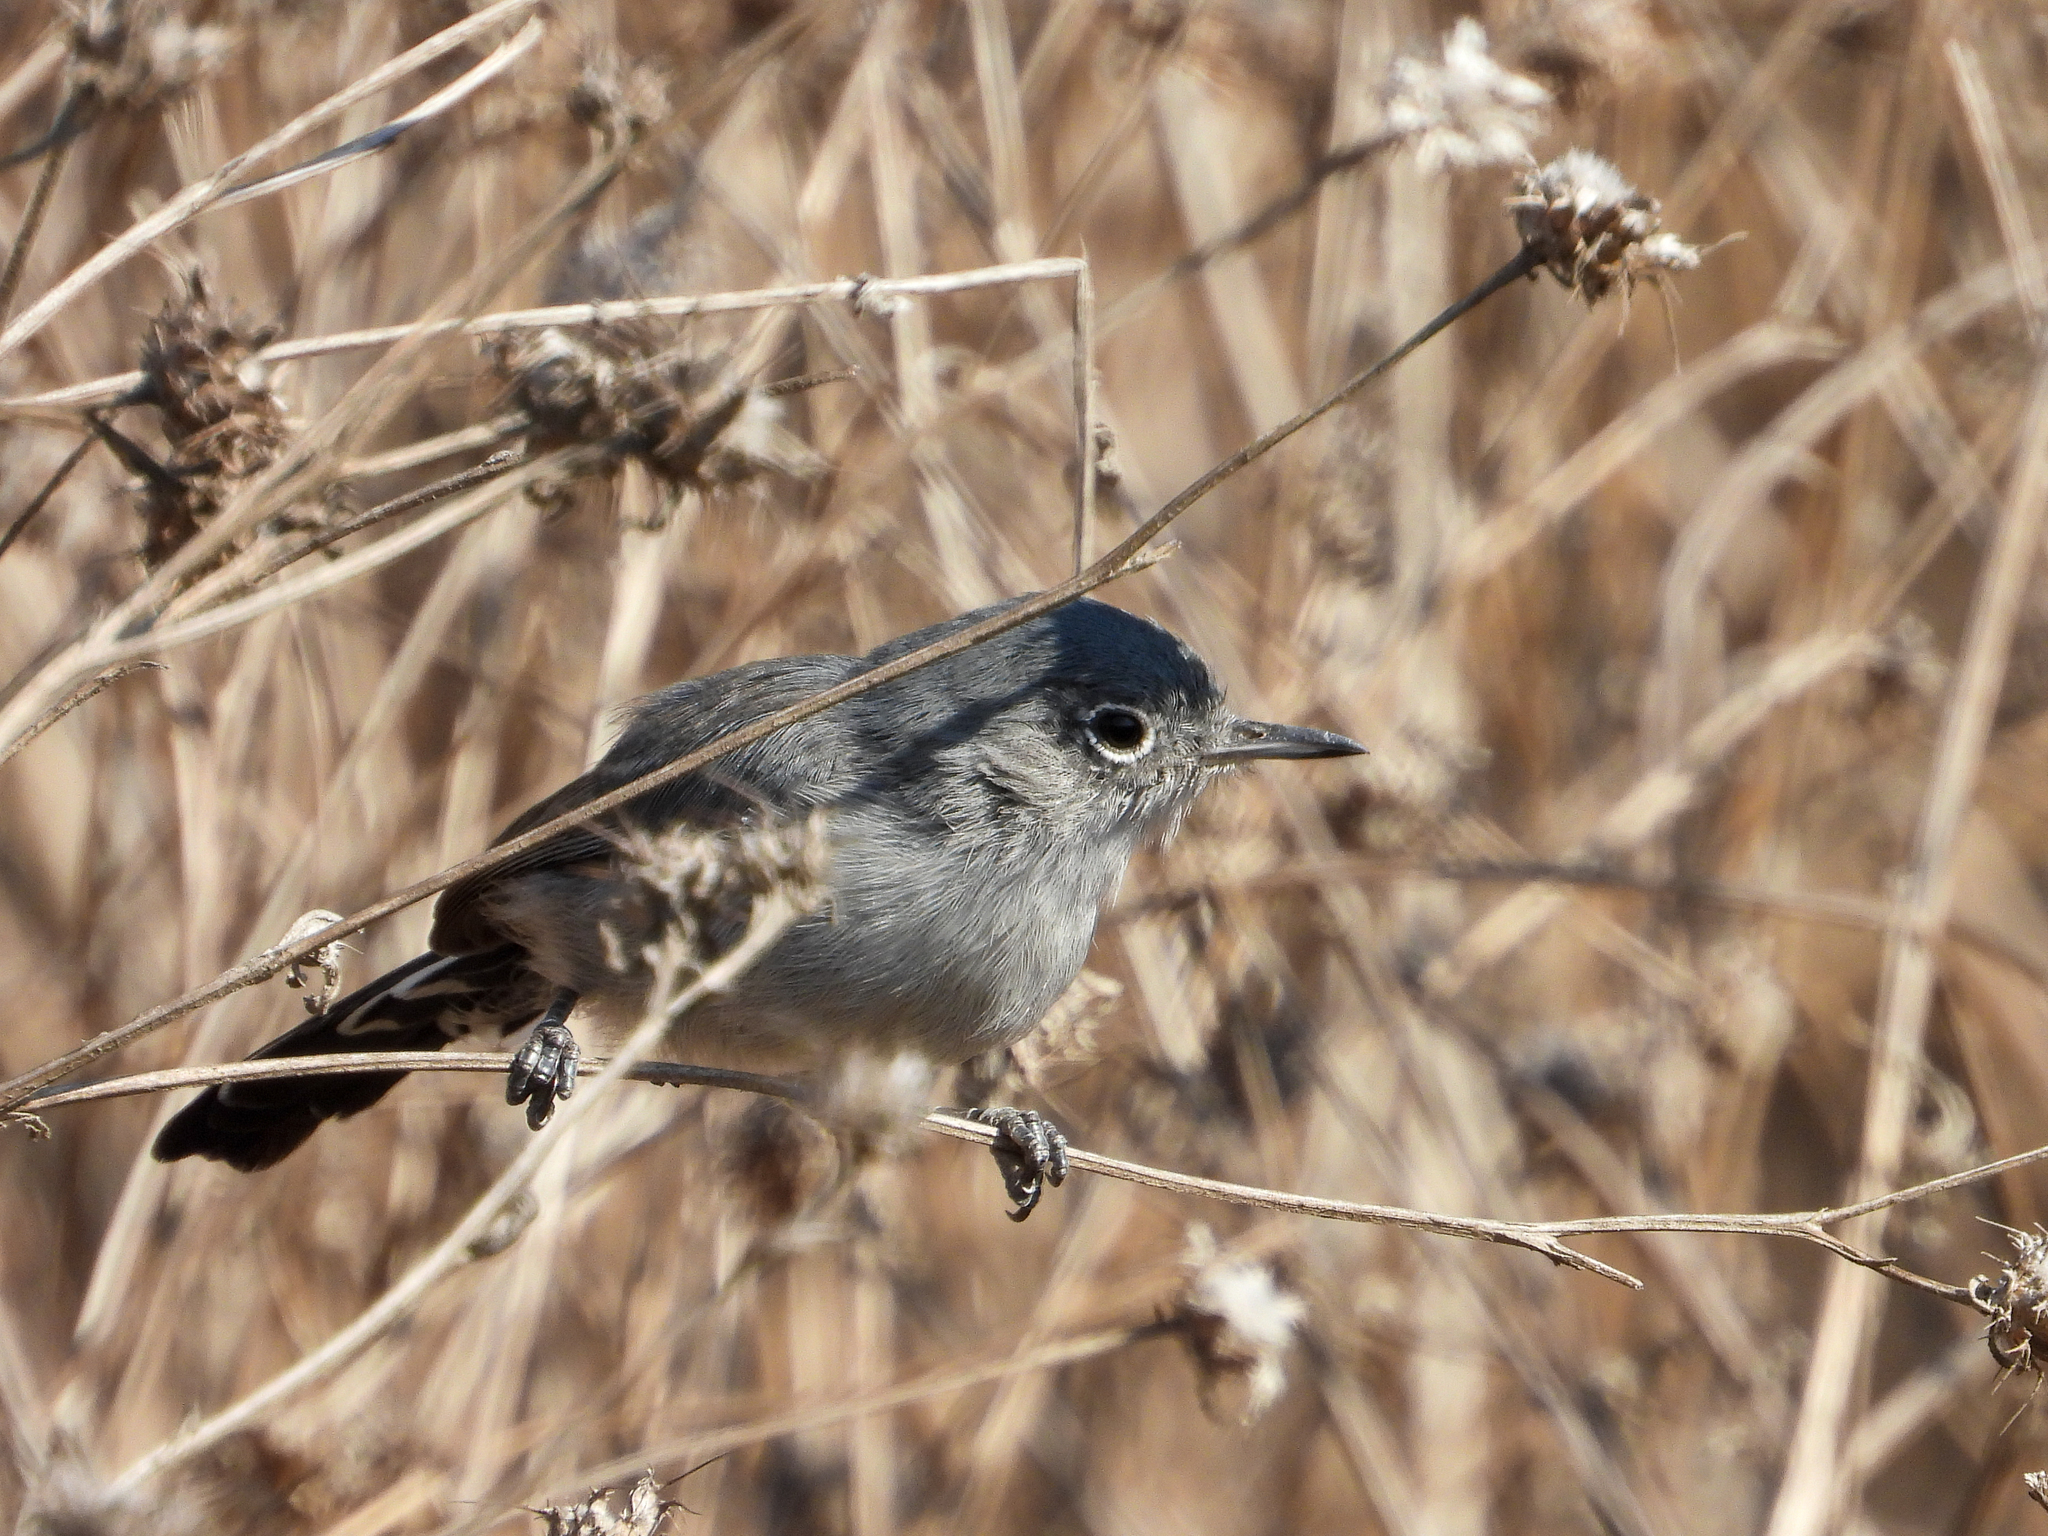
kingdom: Animalia
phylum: Chordata
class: Aves
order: Passeriformes
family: Polioptilidae
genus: Polioptila
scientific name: Polioptila californica
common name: California gnatcatcher
